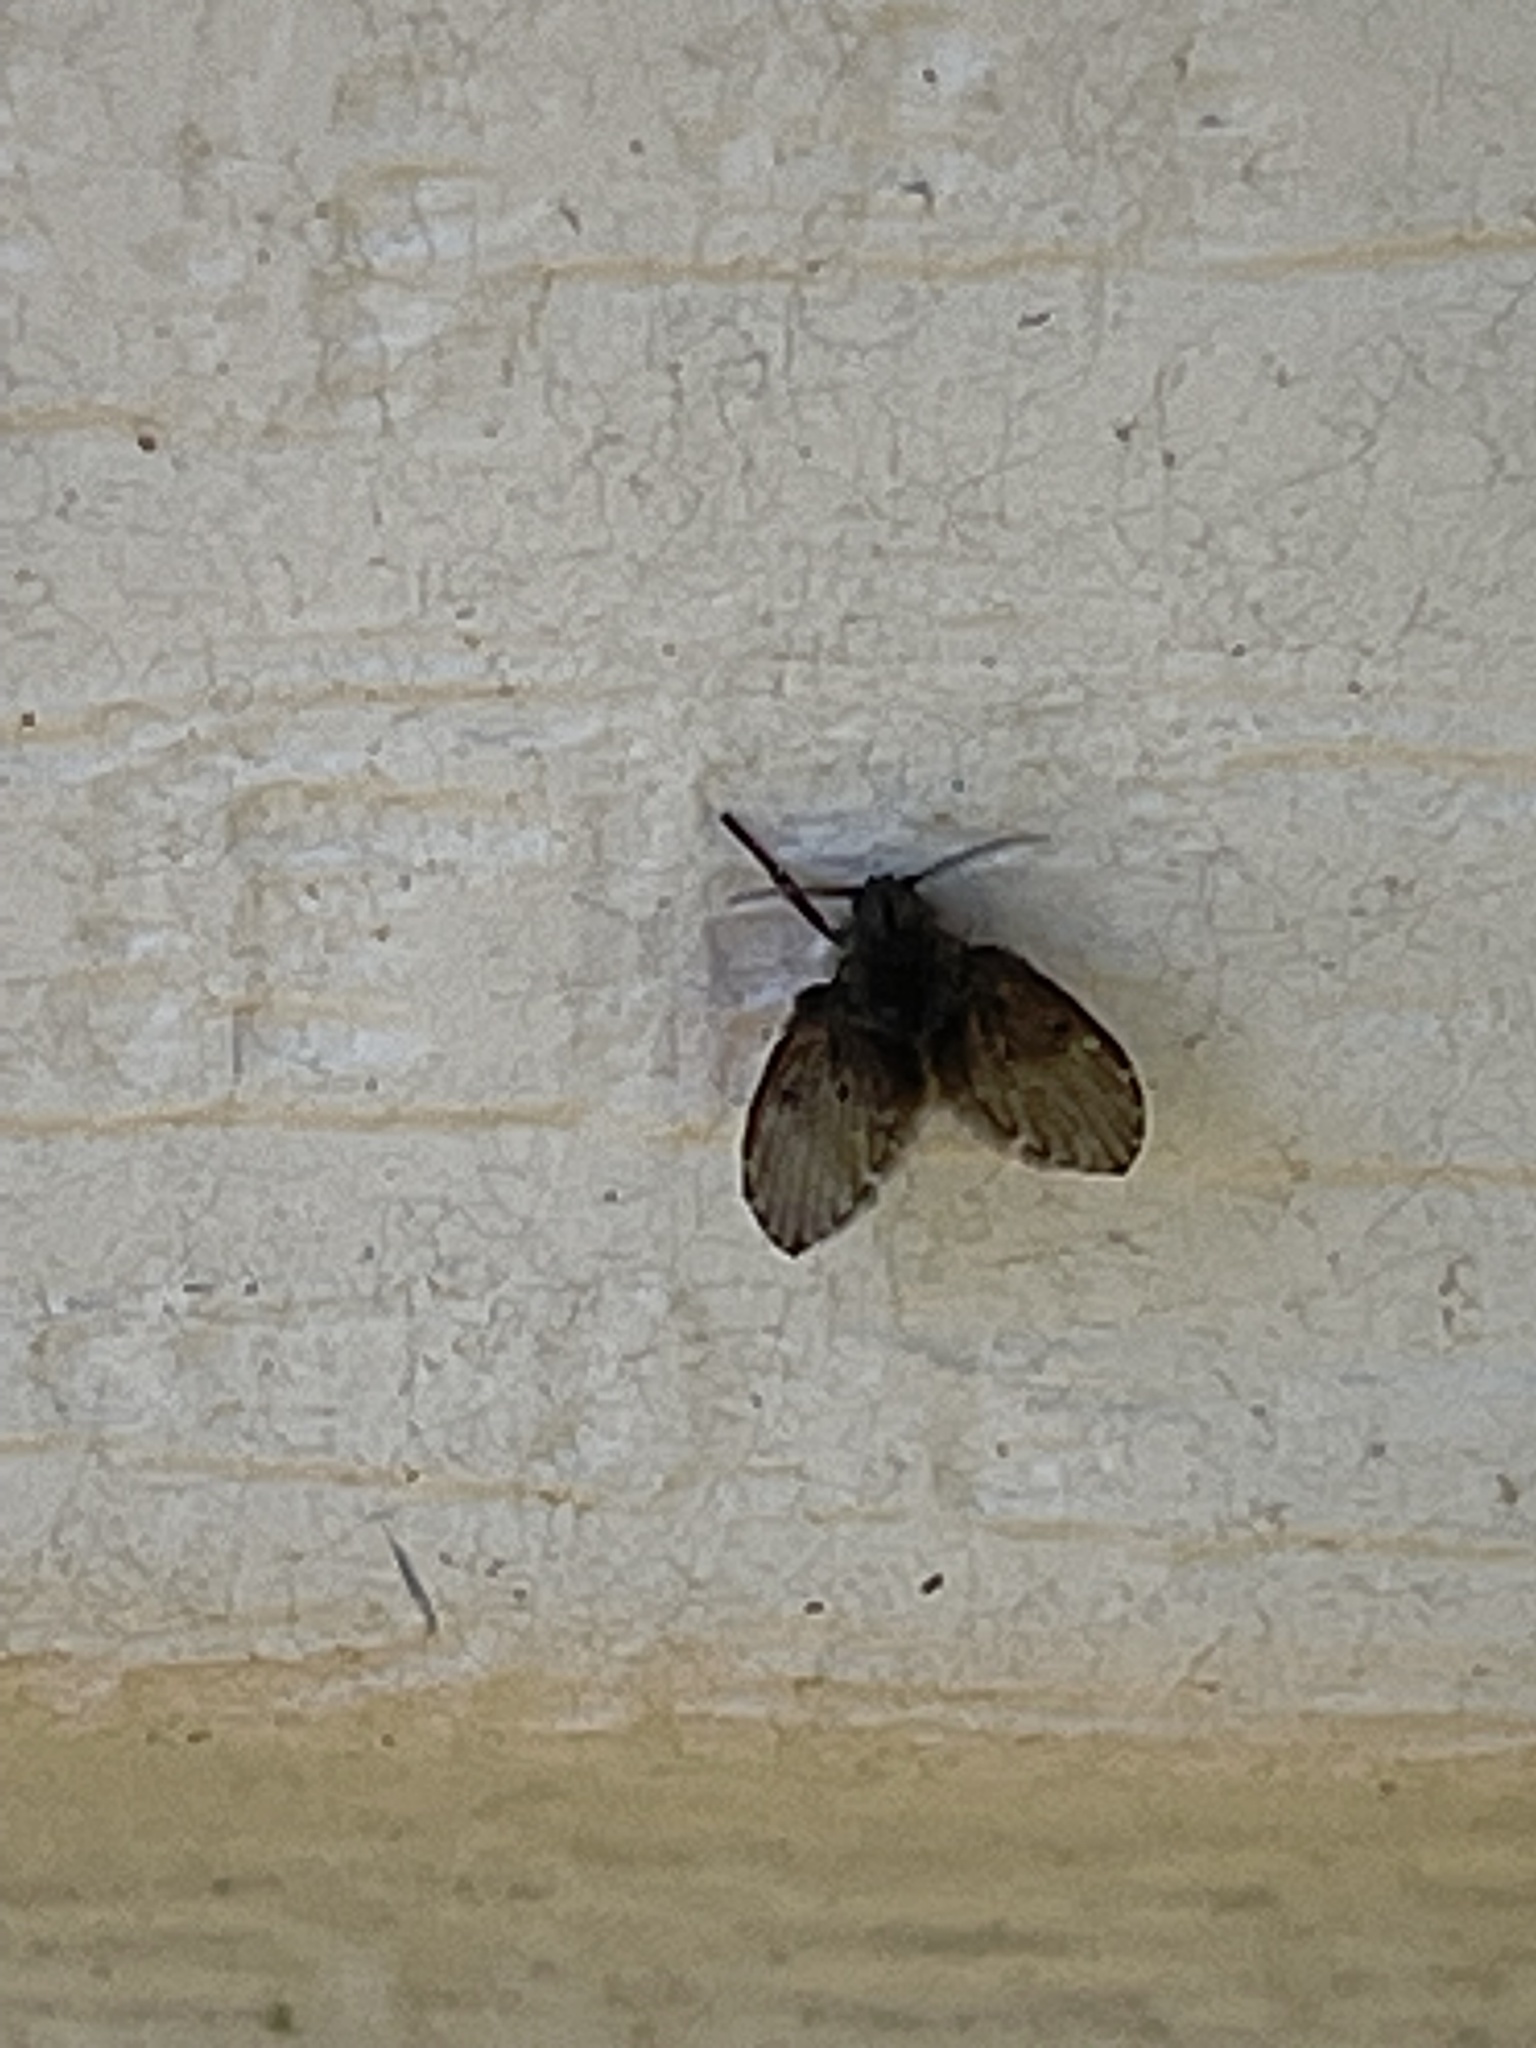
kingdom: Animalia
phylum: Arthropoda
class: Insecta
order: Diptera
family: Psychodidae
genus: Clogmia
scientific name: Clogmia albipunctatus
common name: White-spotted moth fly
